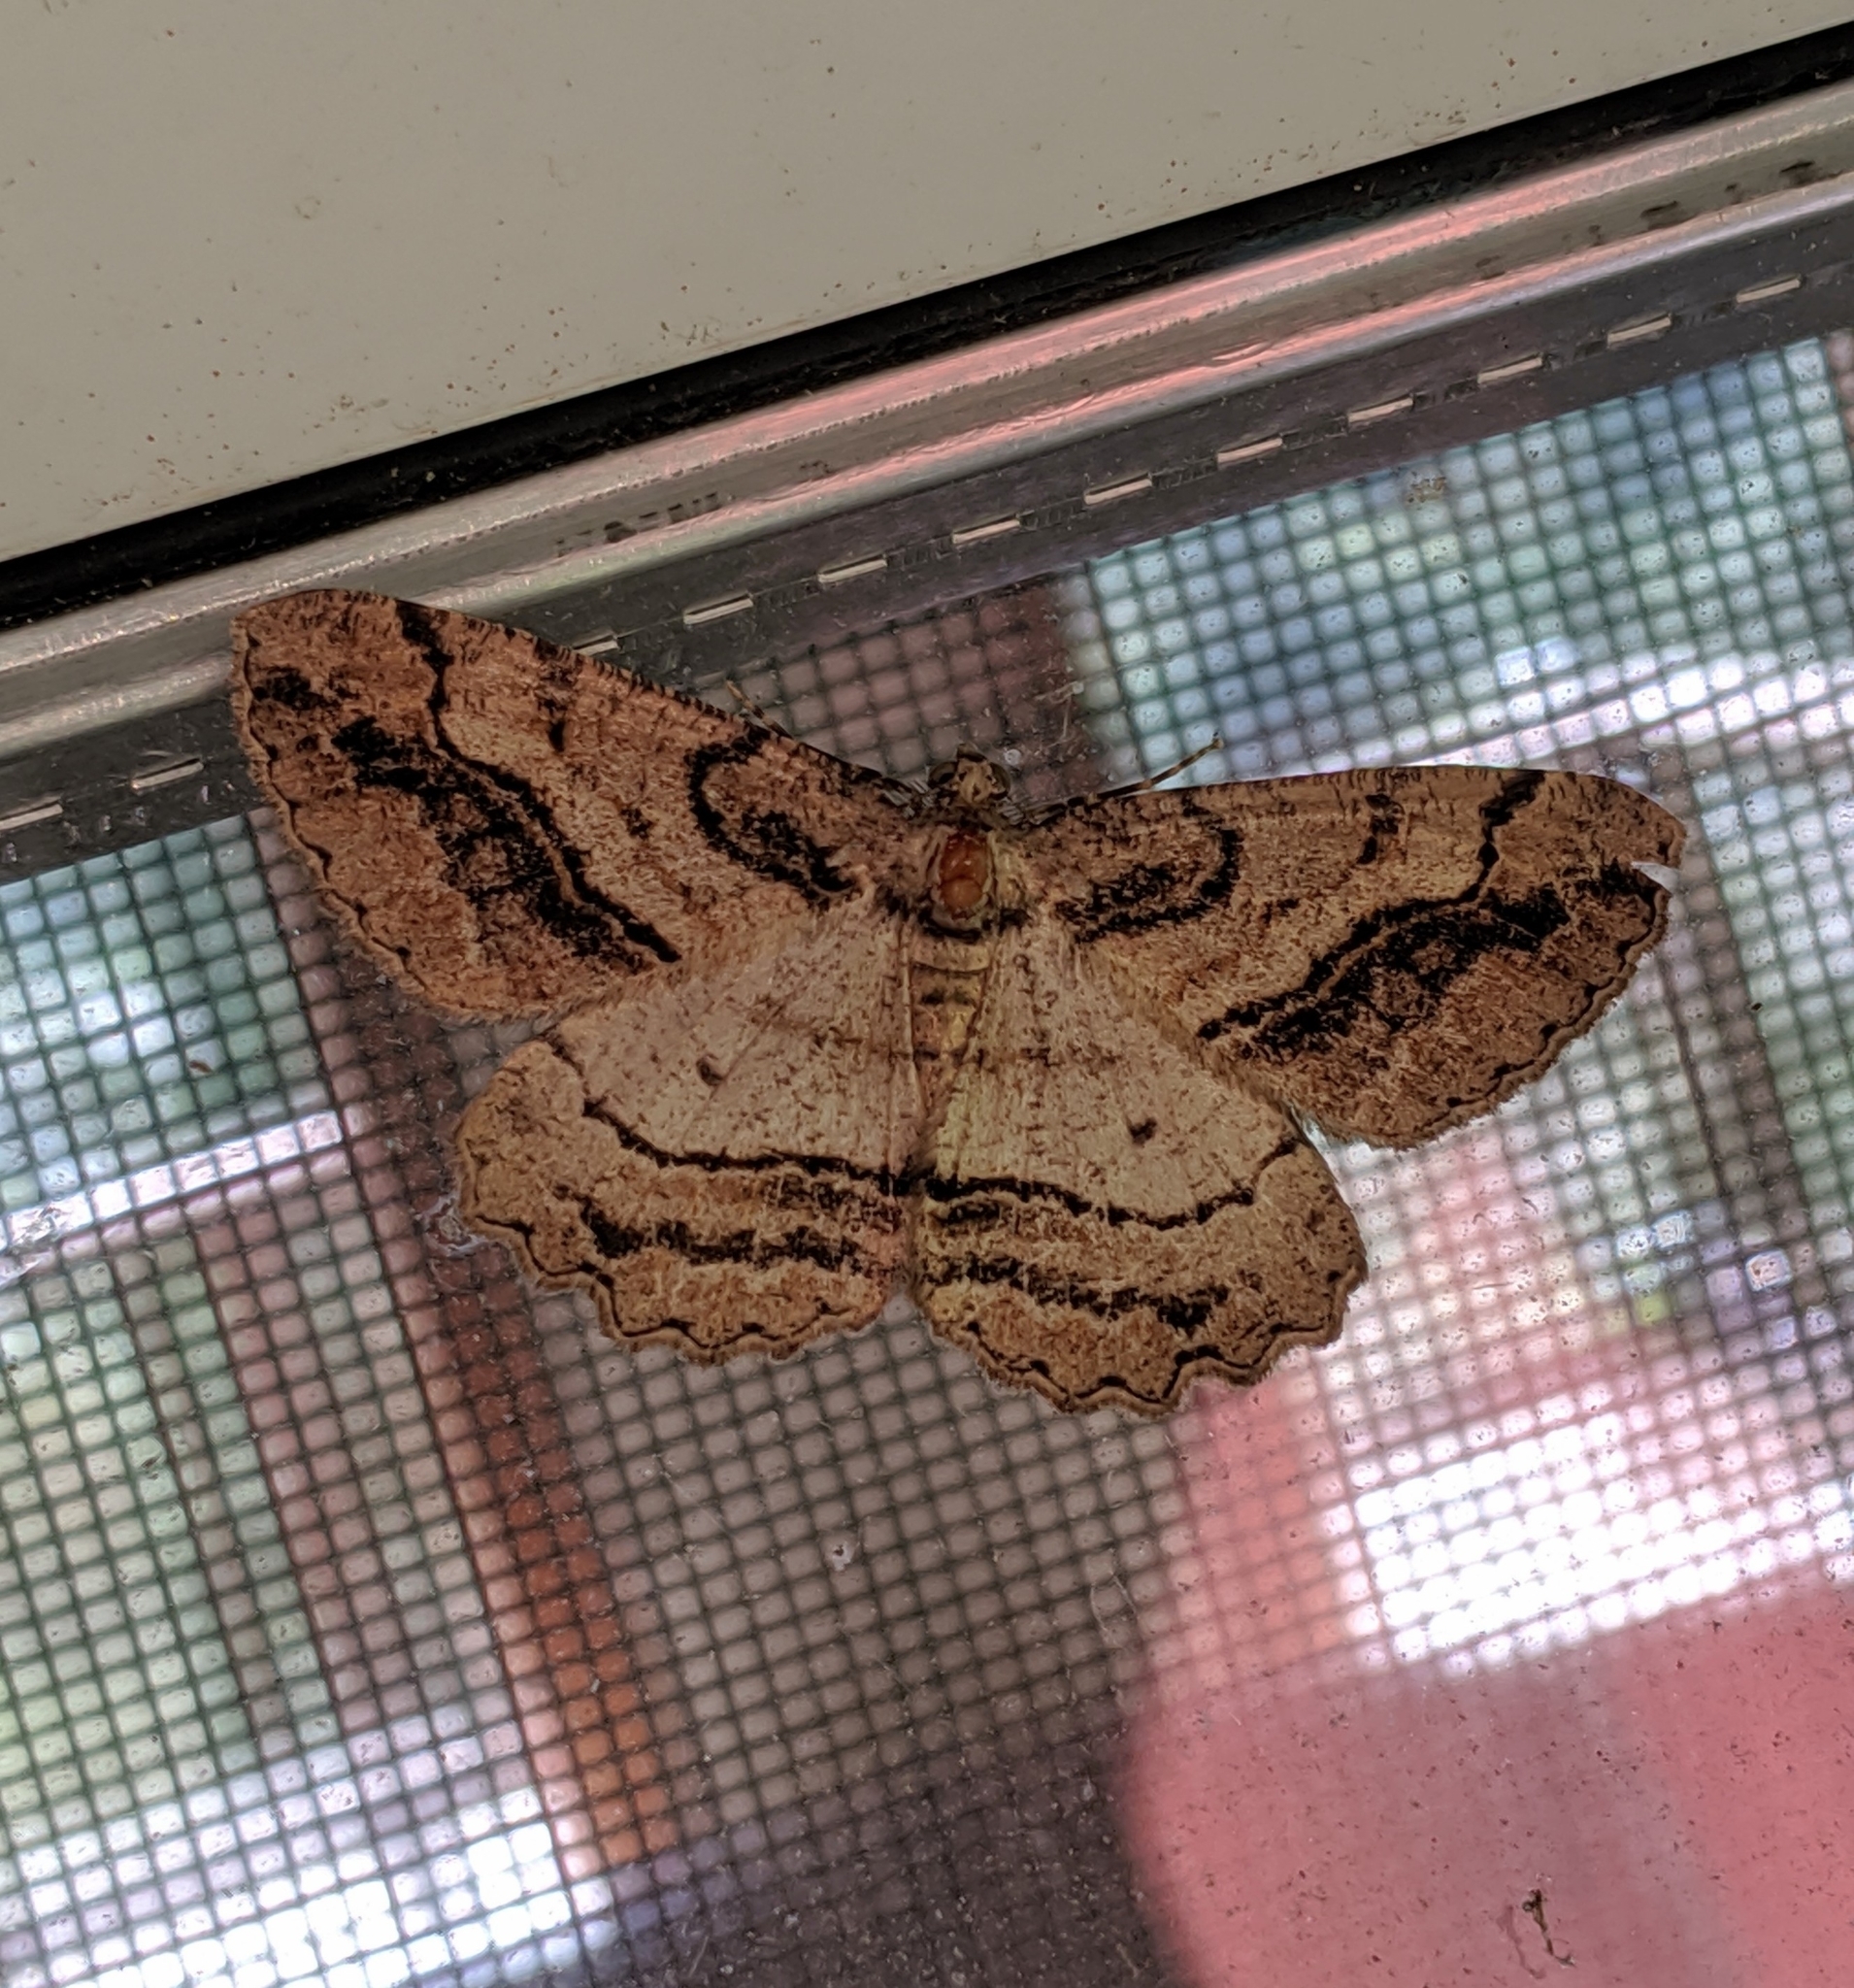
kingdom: Animalia
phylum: Arthropoda
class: Insecta
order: Lepidoptera
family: Geometridae
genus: Neoalcis
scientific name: Neoalcis californiaria
